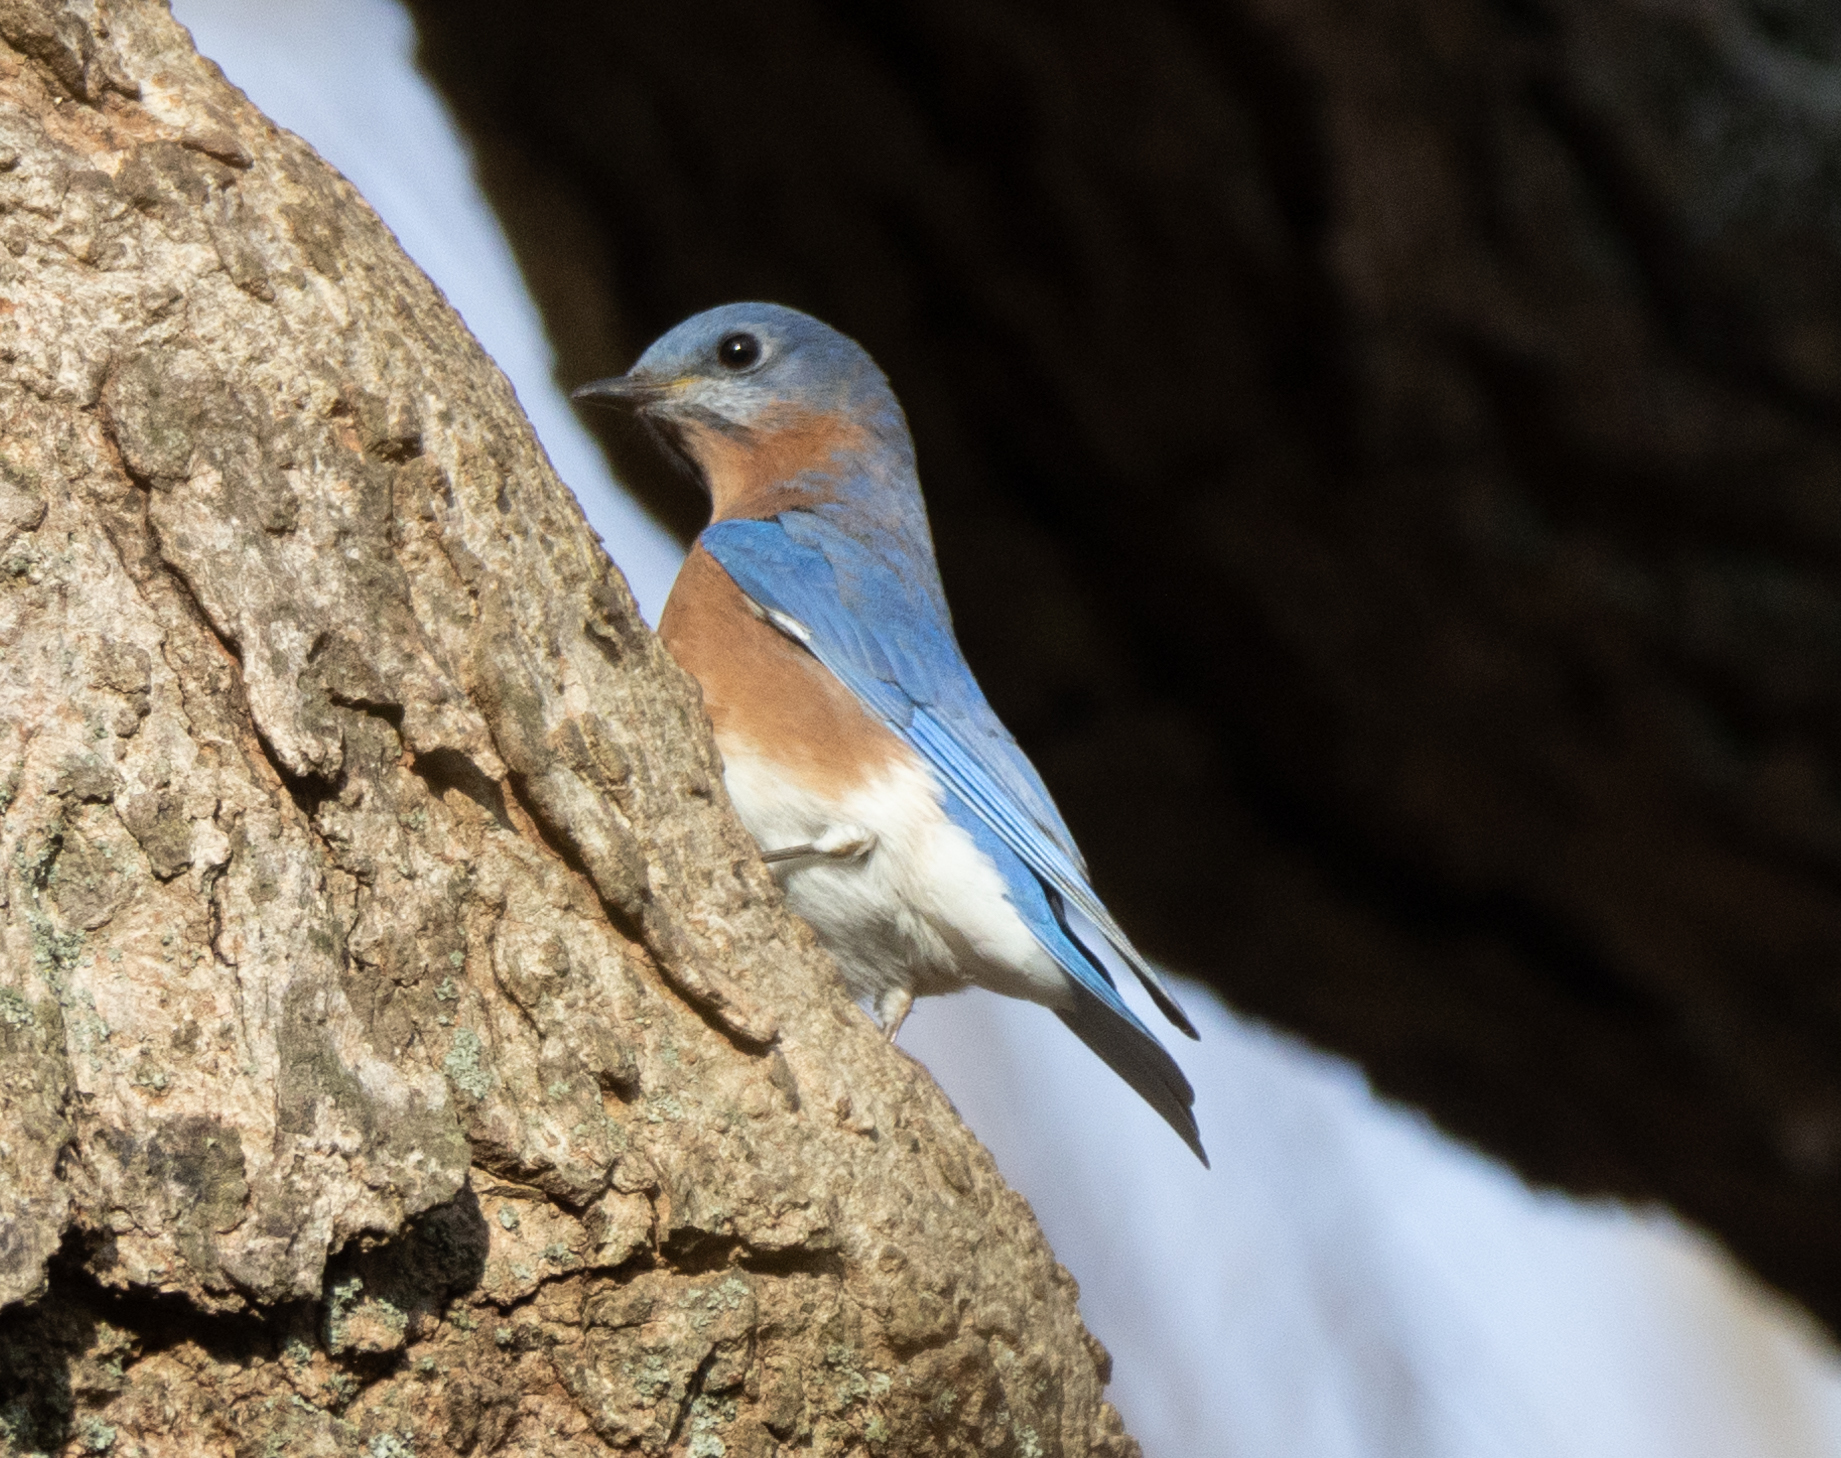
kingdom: Animalia
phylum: Chordata
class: Aves
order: Passeriformes
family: Turdidae
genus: Sialia
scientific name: Sialia sialis
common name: Eastern bluebird
